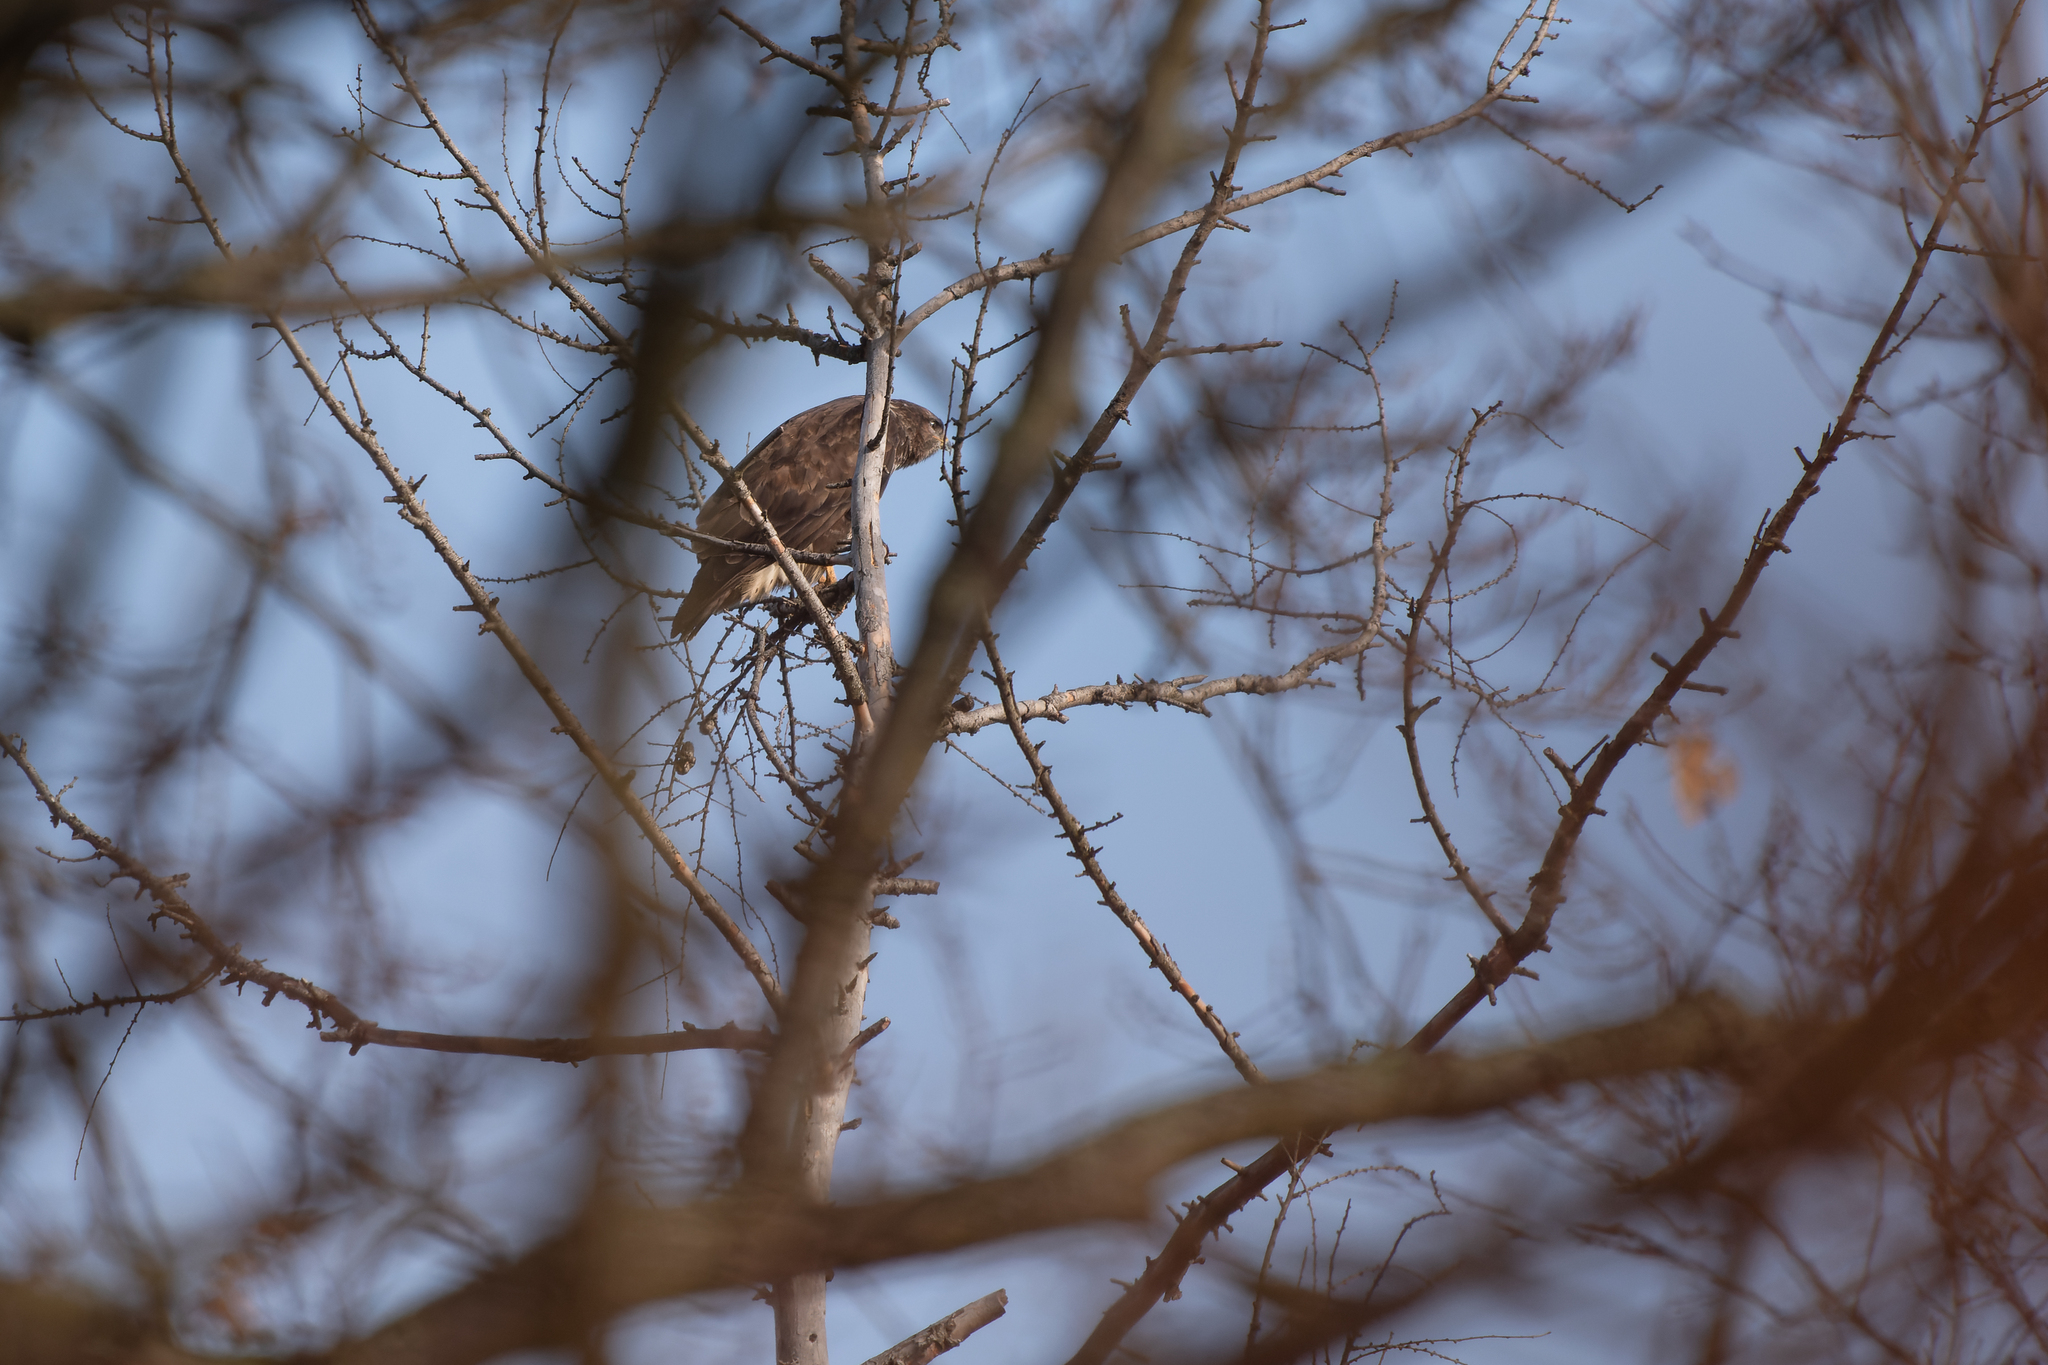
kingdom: Animalia
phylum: Chordata
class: Aves
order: Accipitriformes
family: Accipitridae
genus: Buteo
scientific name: Buteo buteo
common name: Common buzzard
